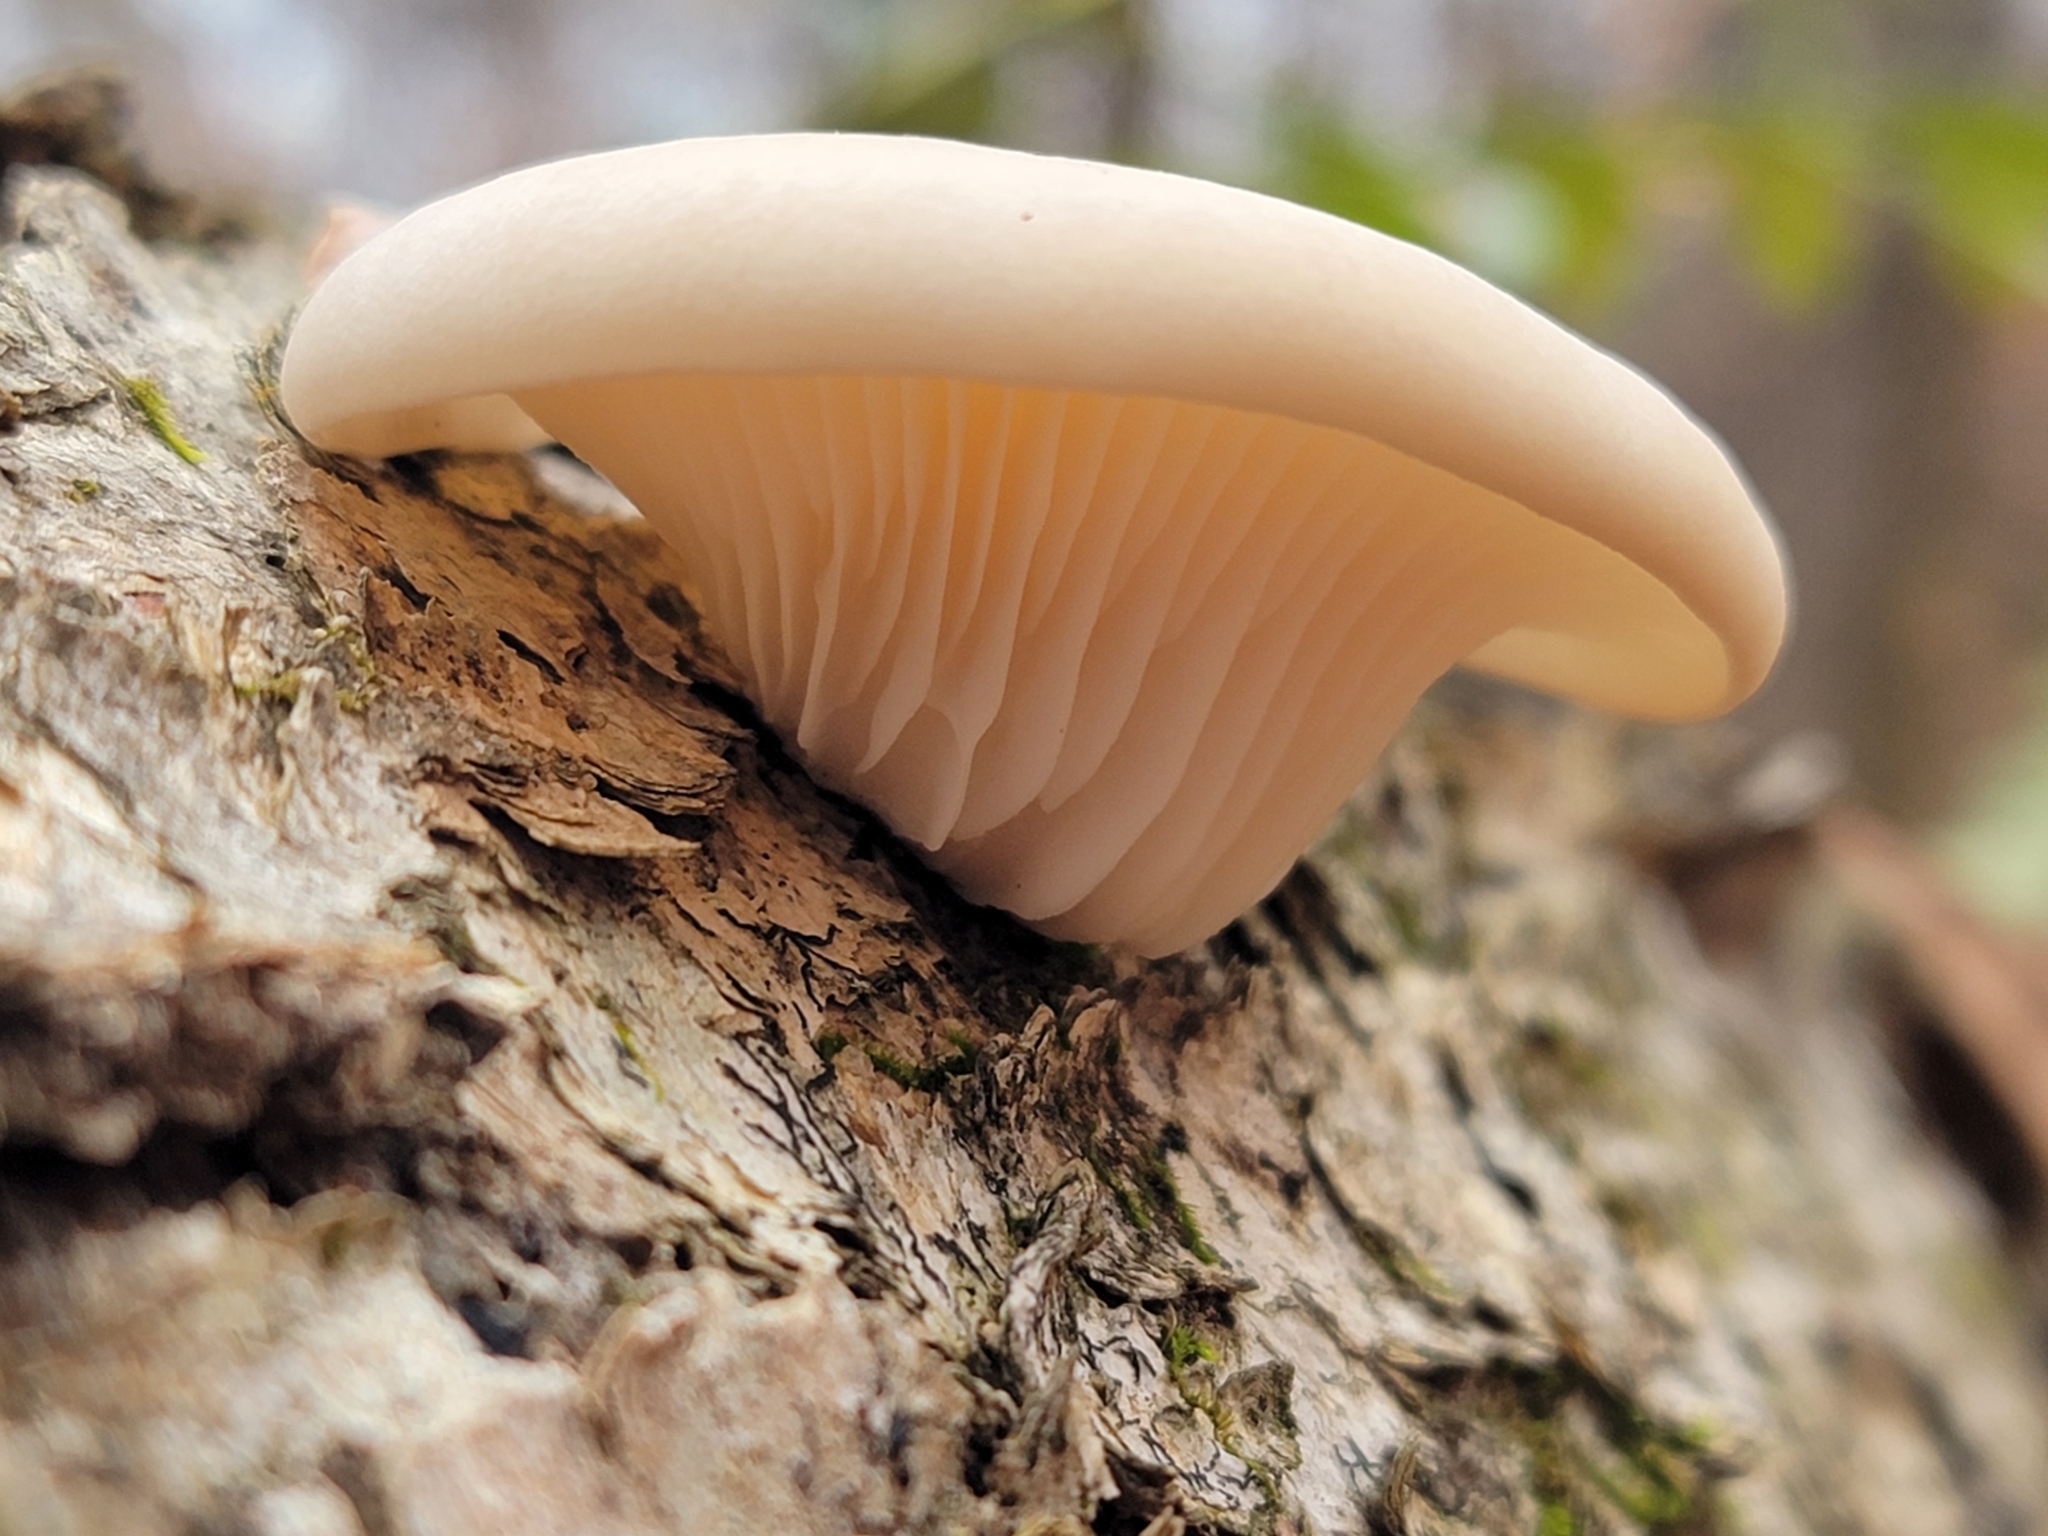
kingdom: Fungi
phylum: Basidiomycota
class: Agaricomycetes
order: Agaricales
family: Pleurotaceae
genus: Pleurotus
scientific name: Pleurotus ostreatus
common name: Oyster mushroom
